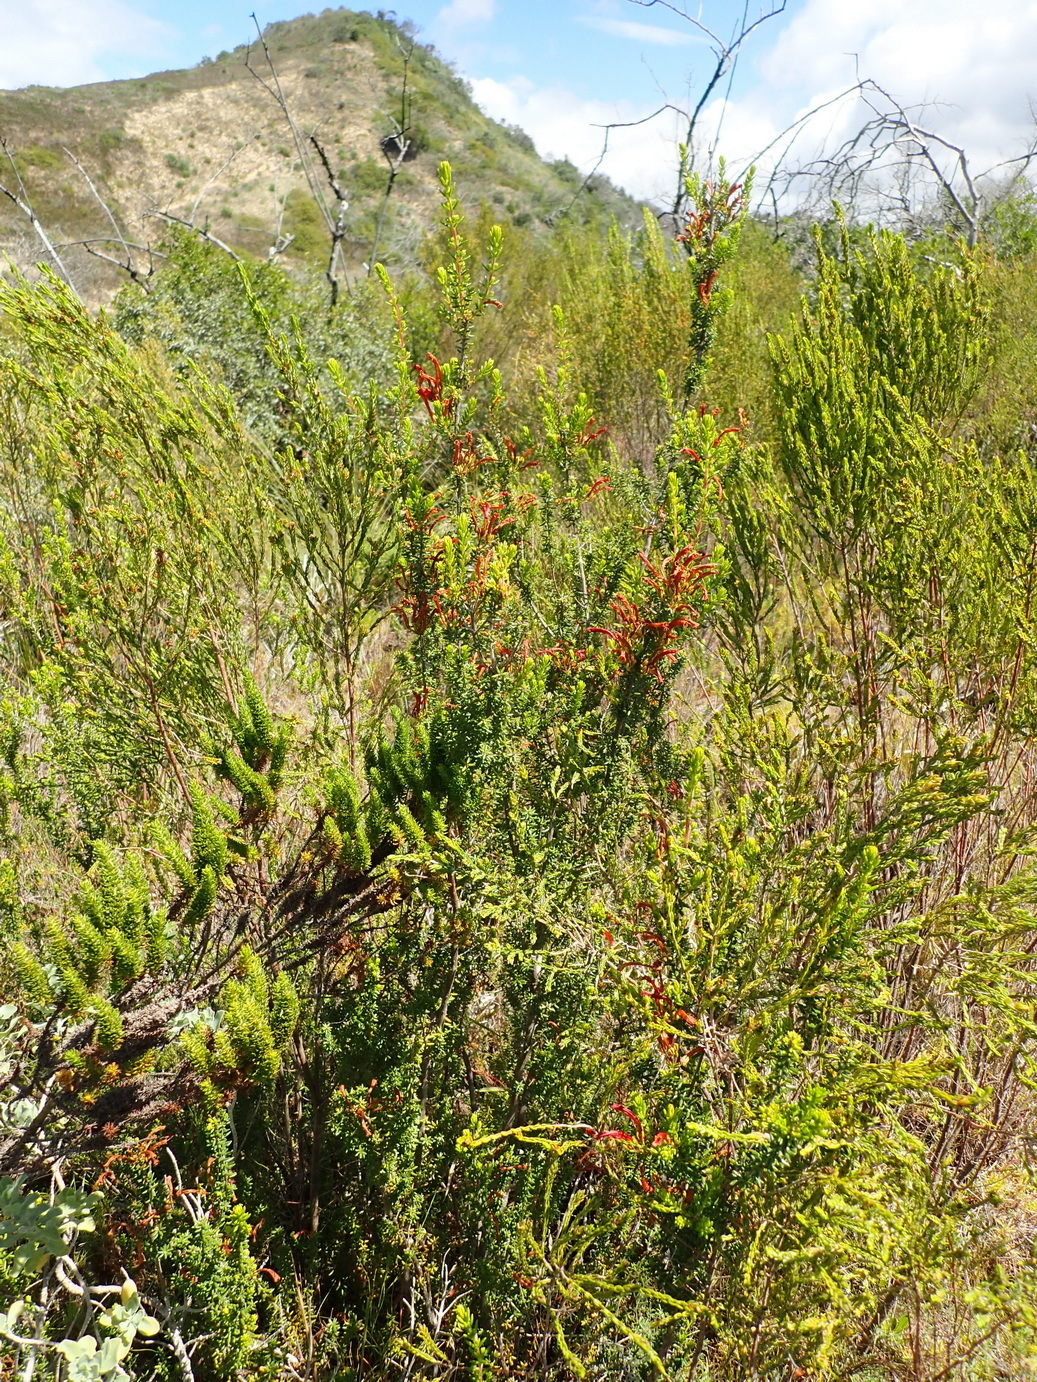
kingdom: Plantae
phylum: Tracheophyta
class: Magnoliopsida
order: Ericales
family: Ericaceae
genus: Erica
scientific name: Erica glandulosa
